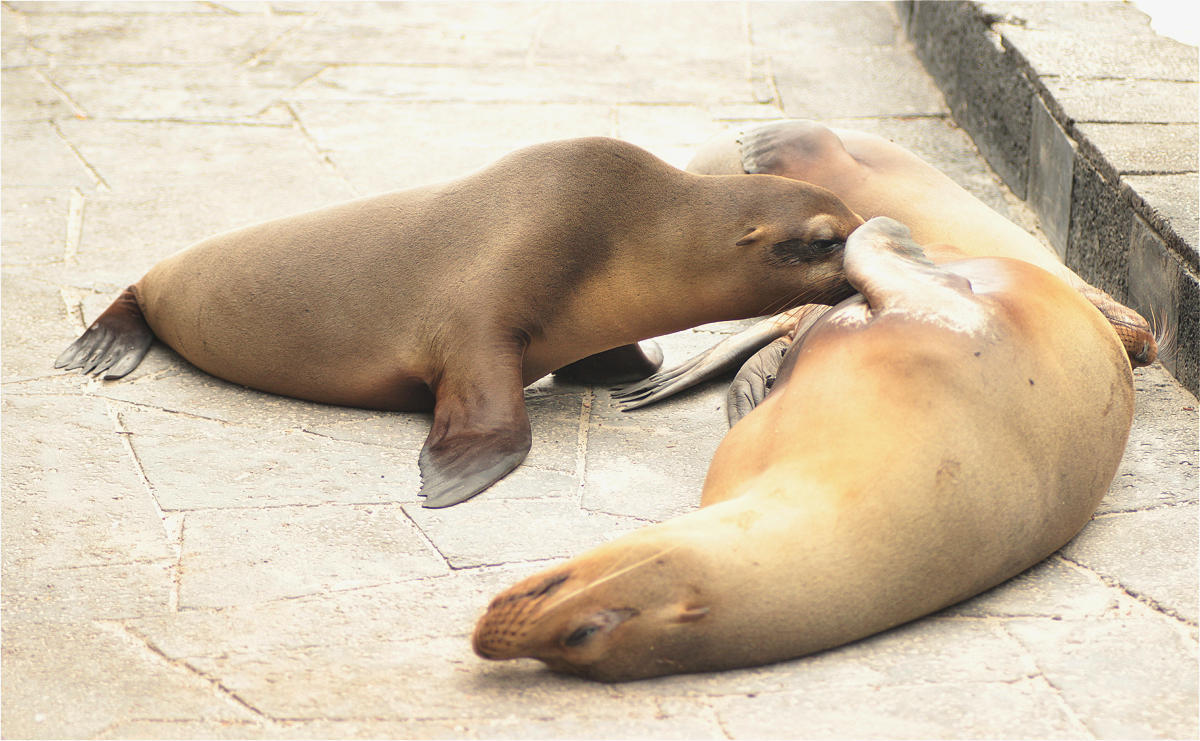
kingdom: Animalia
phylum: Chordata
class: Mammalia
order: Carnivora
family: Otariidae
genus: Zalophus
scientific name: Zalophus wollebaeki
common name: Galapagos sea lion
